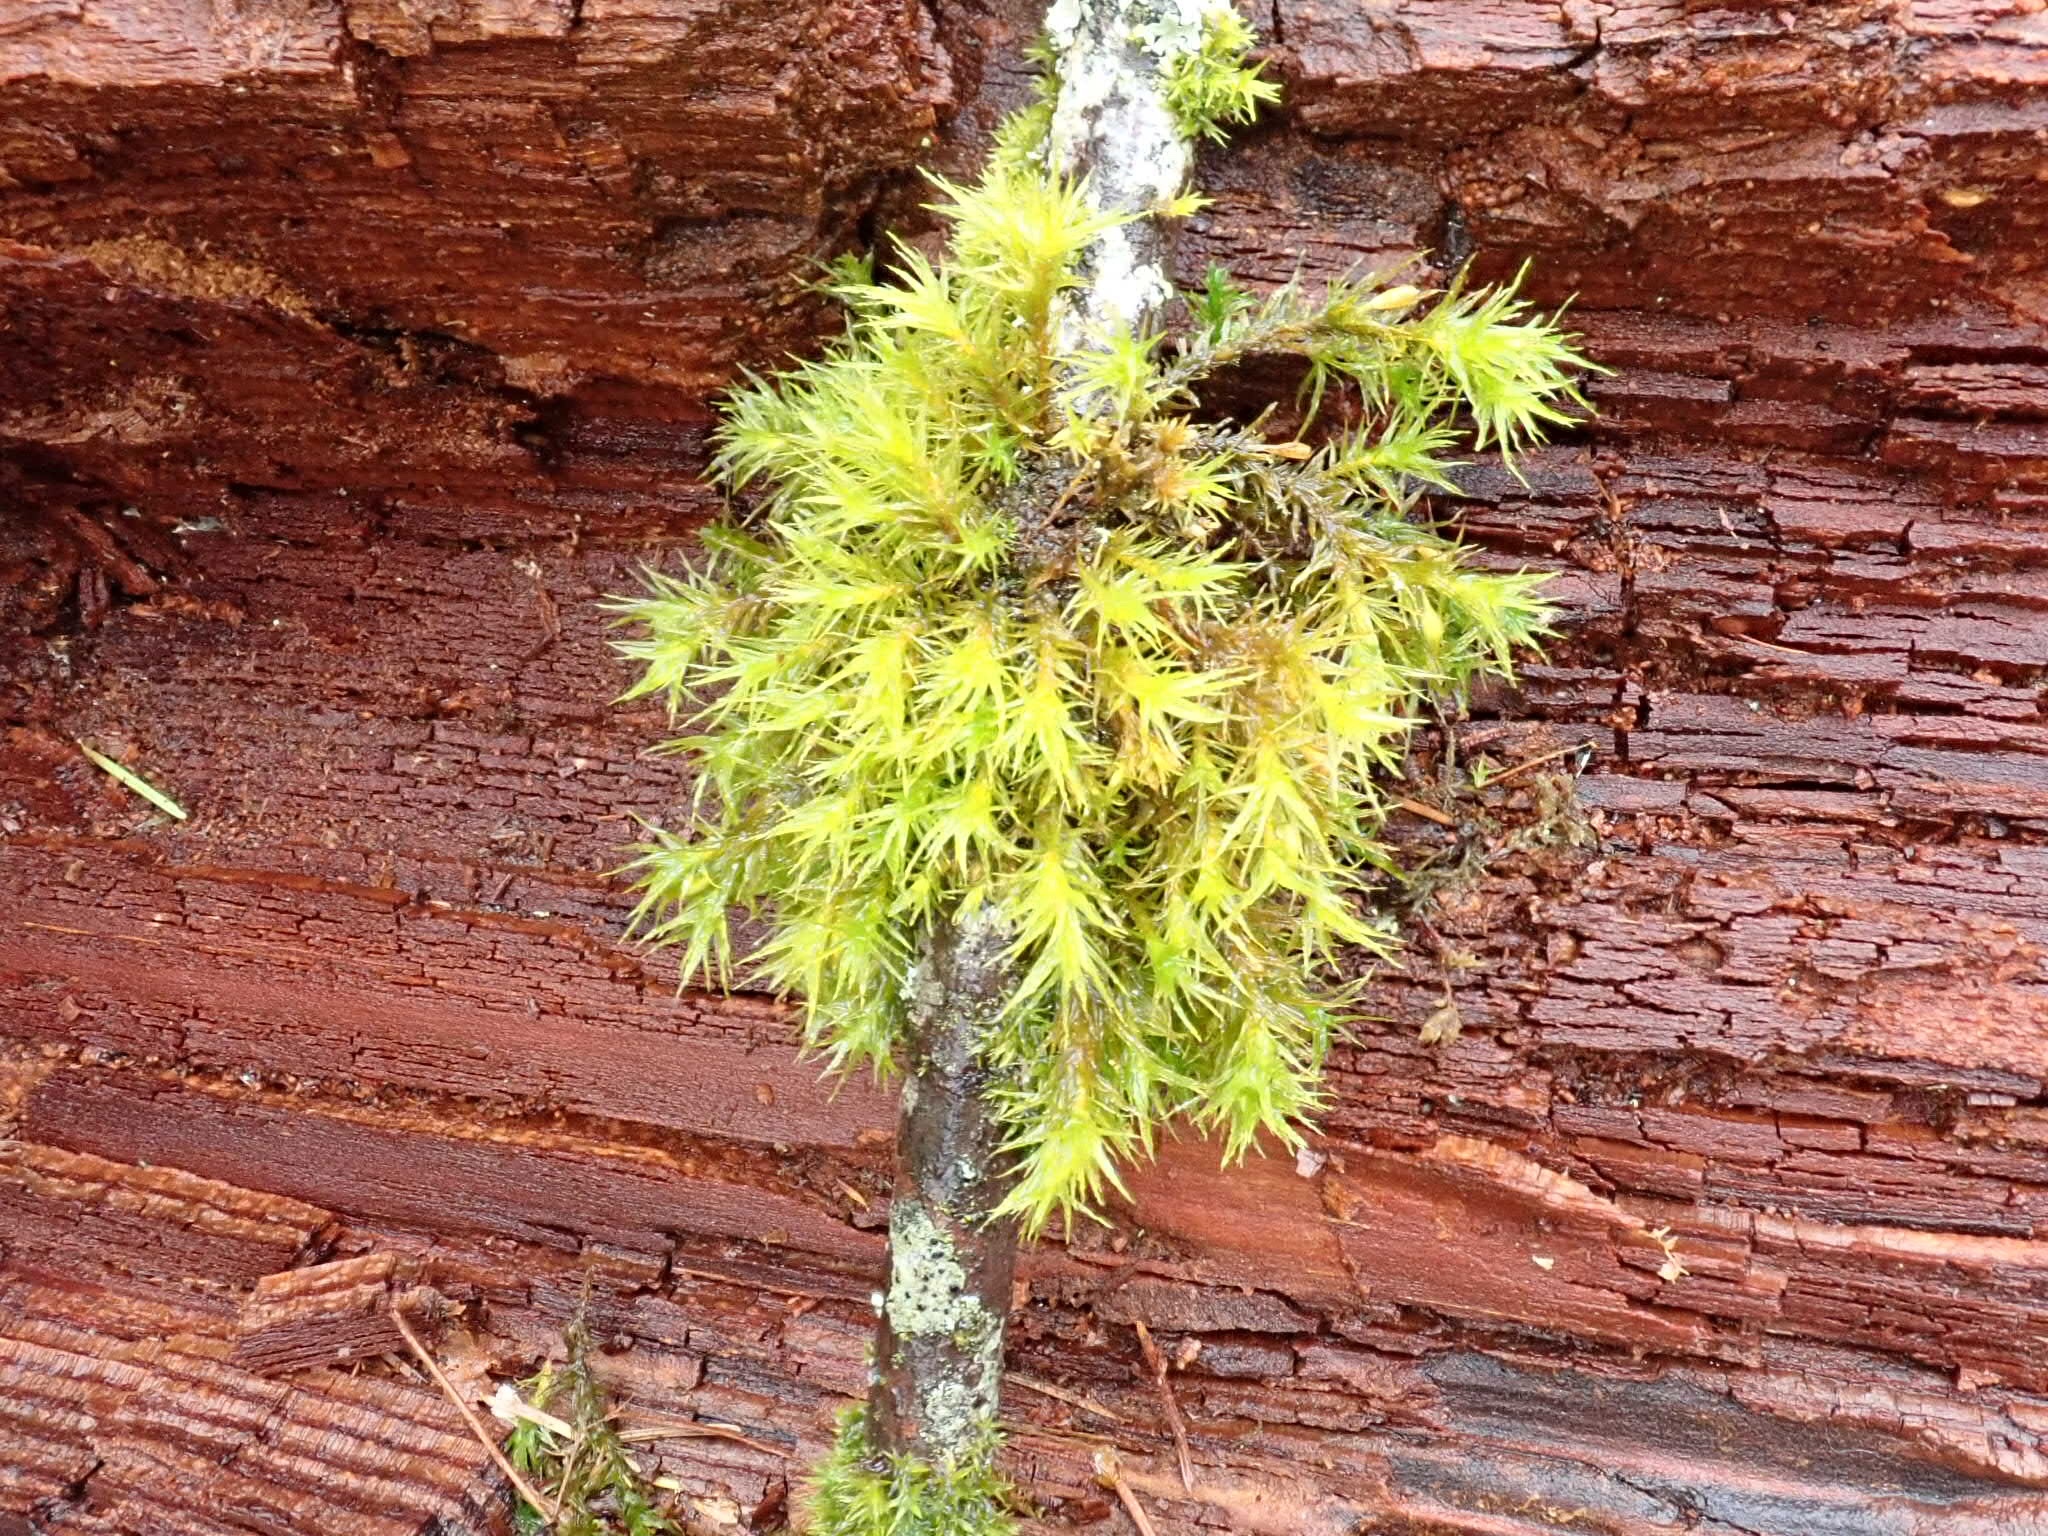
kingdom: Plantae
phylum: Bryophyta
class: Bryopsida
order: Orthotrichales
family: Orthotrichaceae
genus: Pulvigera
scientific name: Pulvigera lyellii
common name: Lyell's bristle-moss
